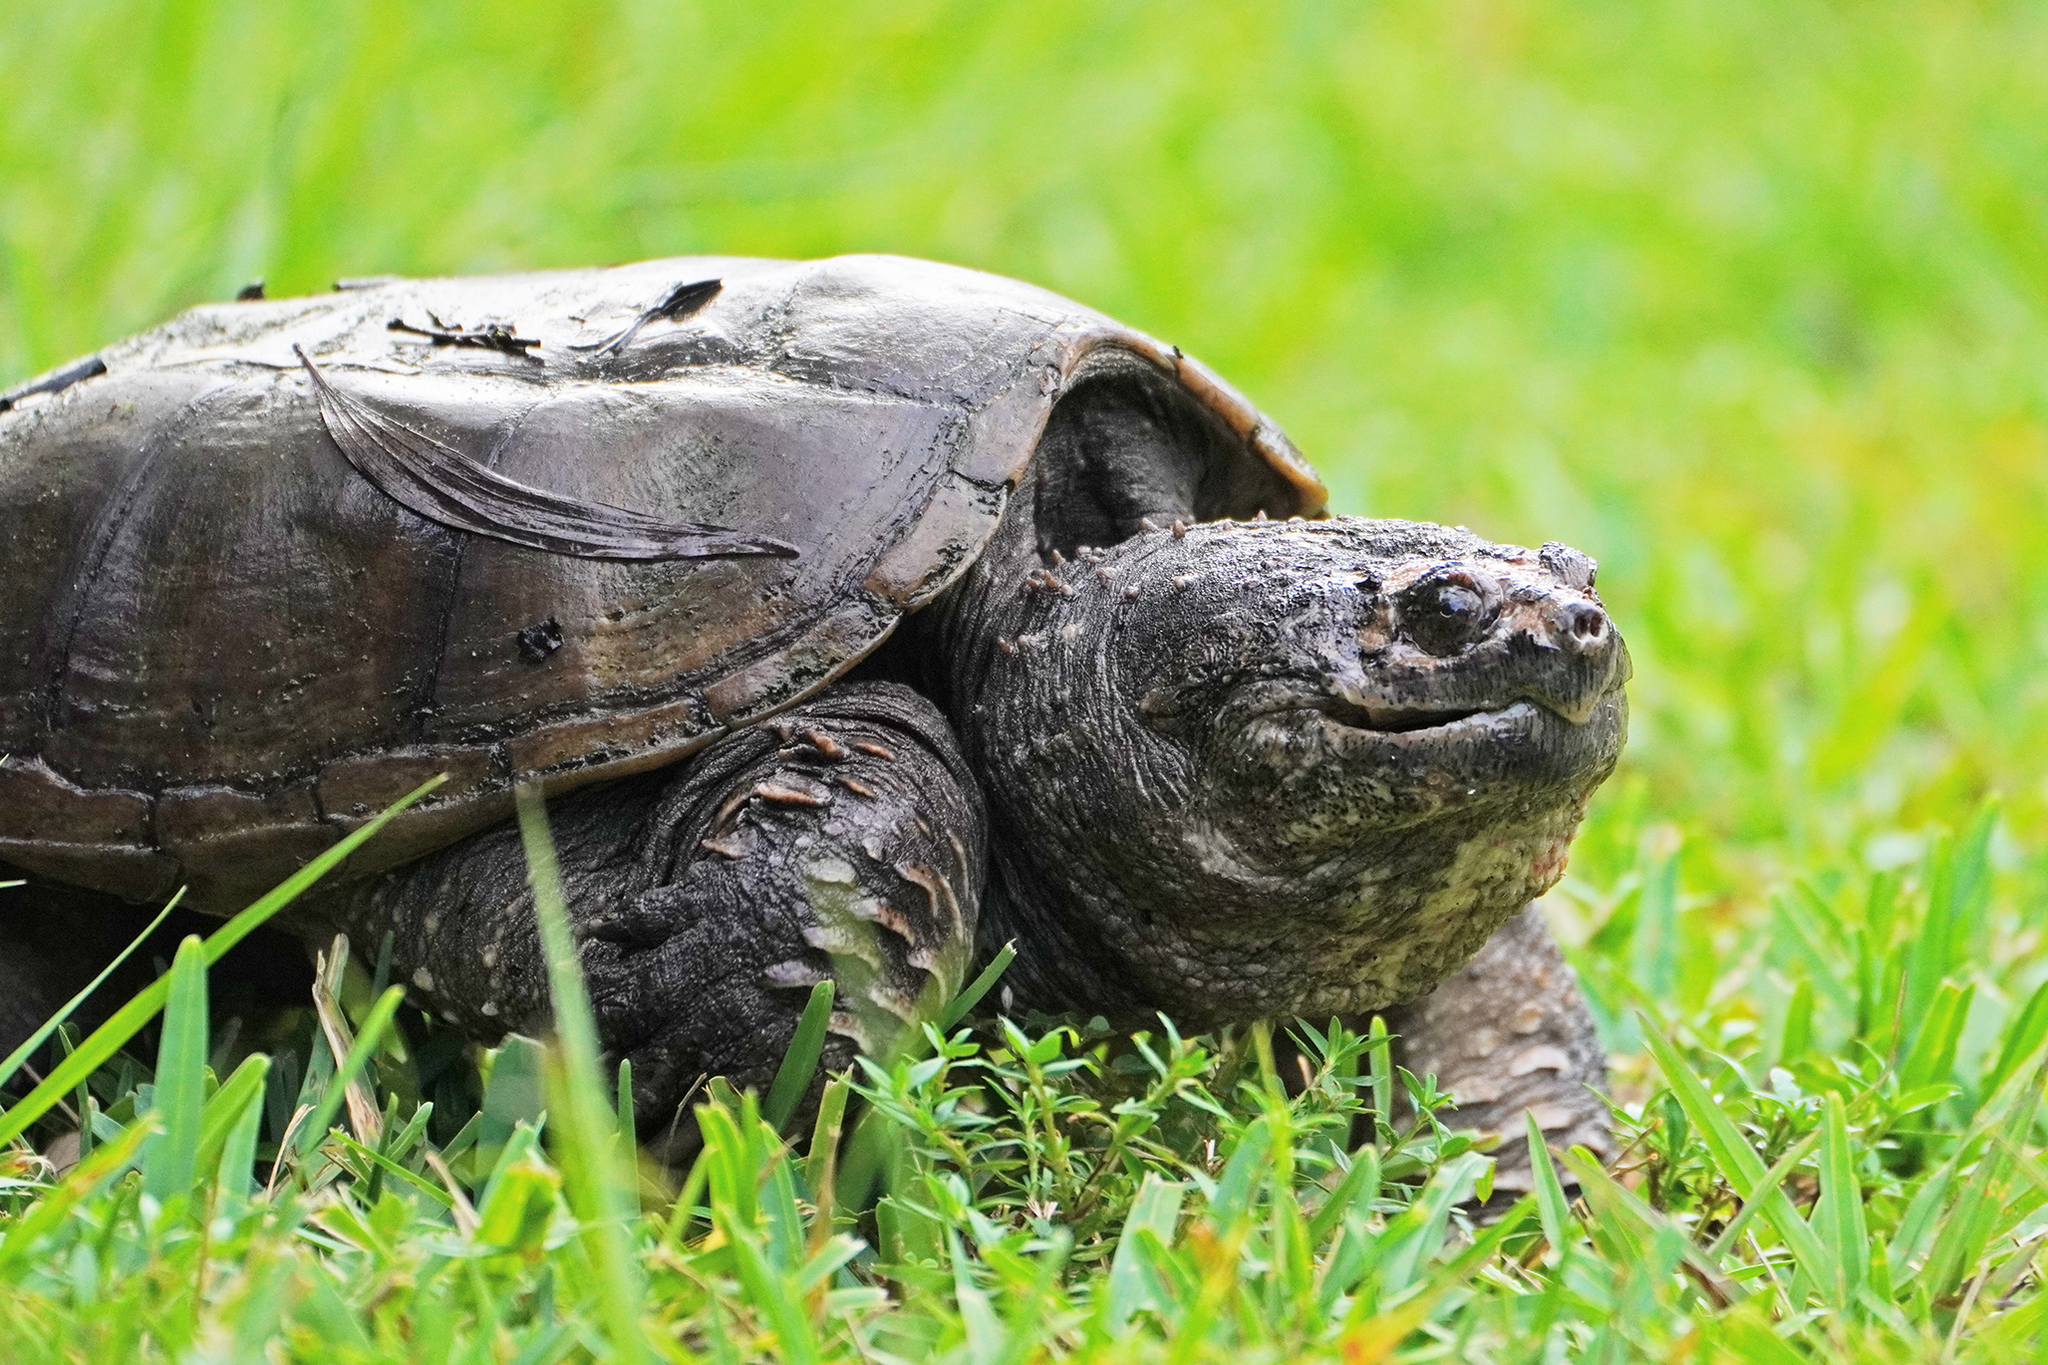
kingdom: Animalia
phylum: Chordata
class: Testudines
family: Chelydridae
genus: Chelydra
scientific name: Chelydra serpentina
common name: Common snapping turtle
